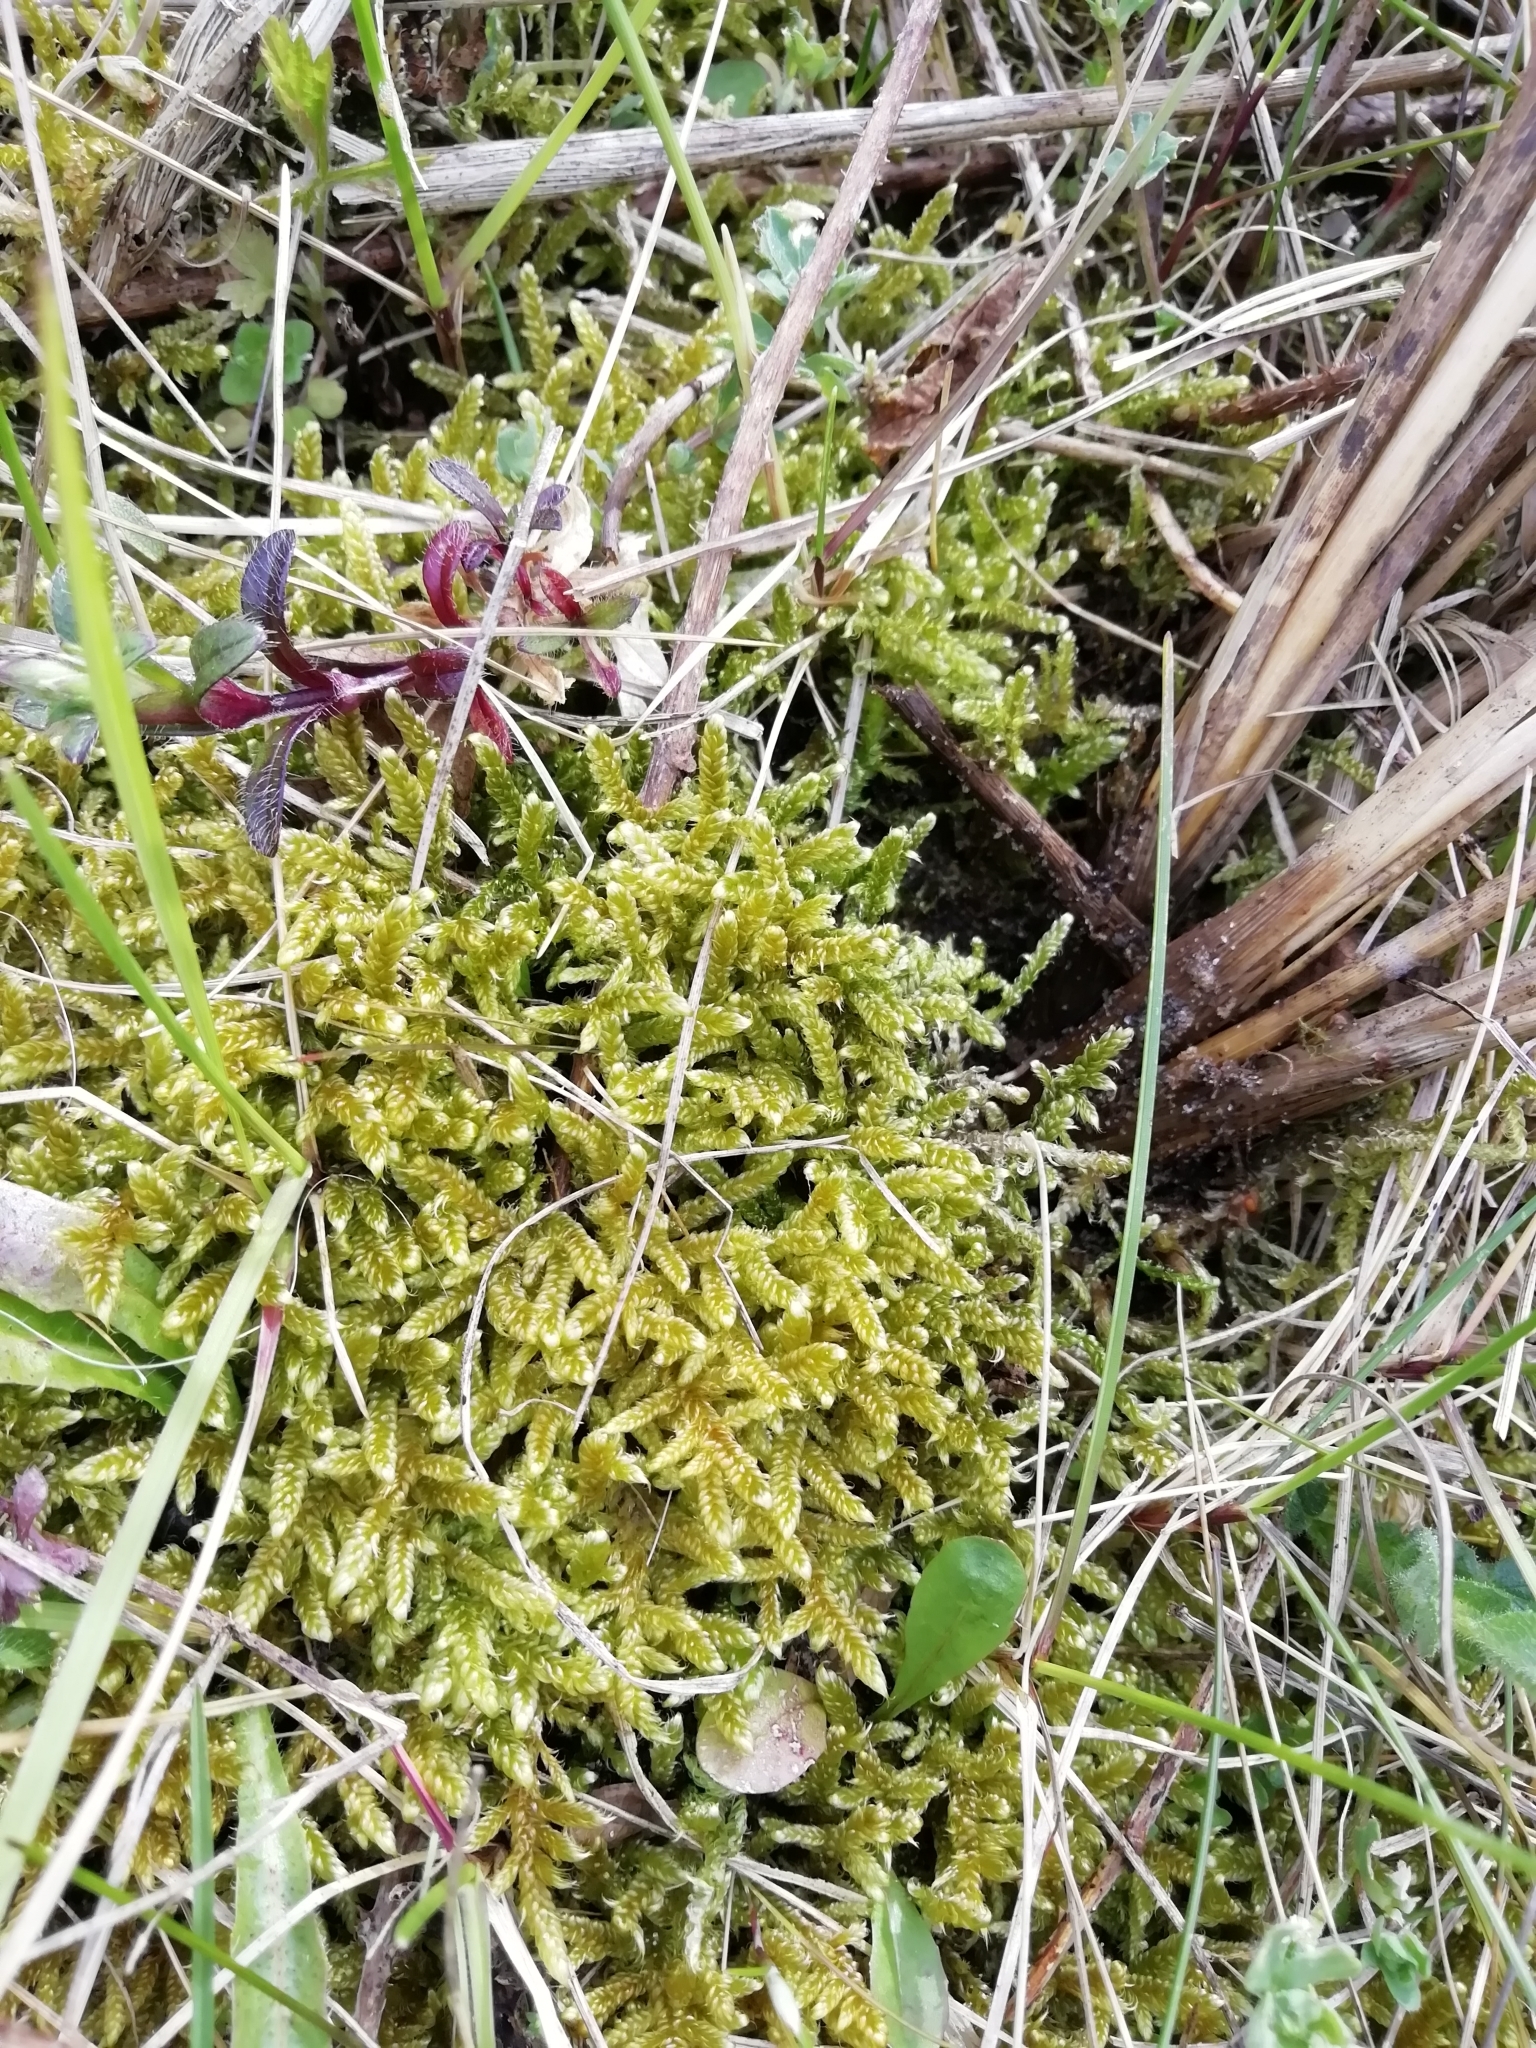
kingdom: Plantae
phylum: Bryophyta
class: Bryopsida
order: Hypnales
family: Hypnaceae
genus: Hypnum
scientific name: Hypnum cupressiforme
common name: Cypress-leaved plait-moss
